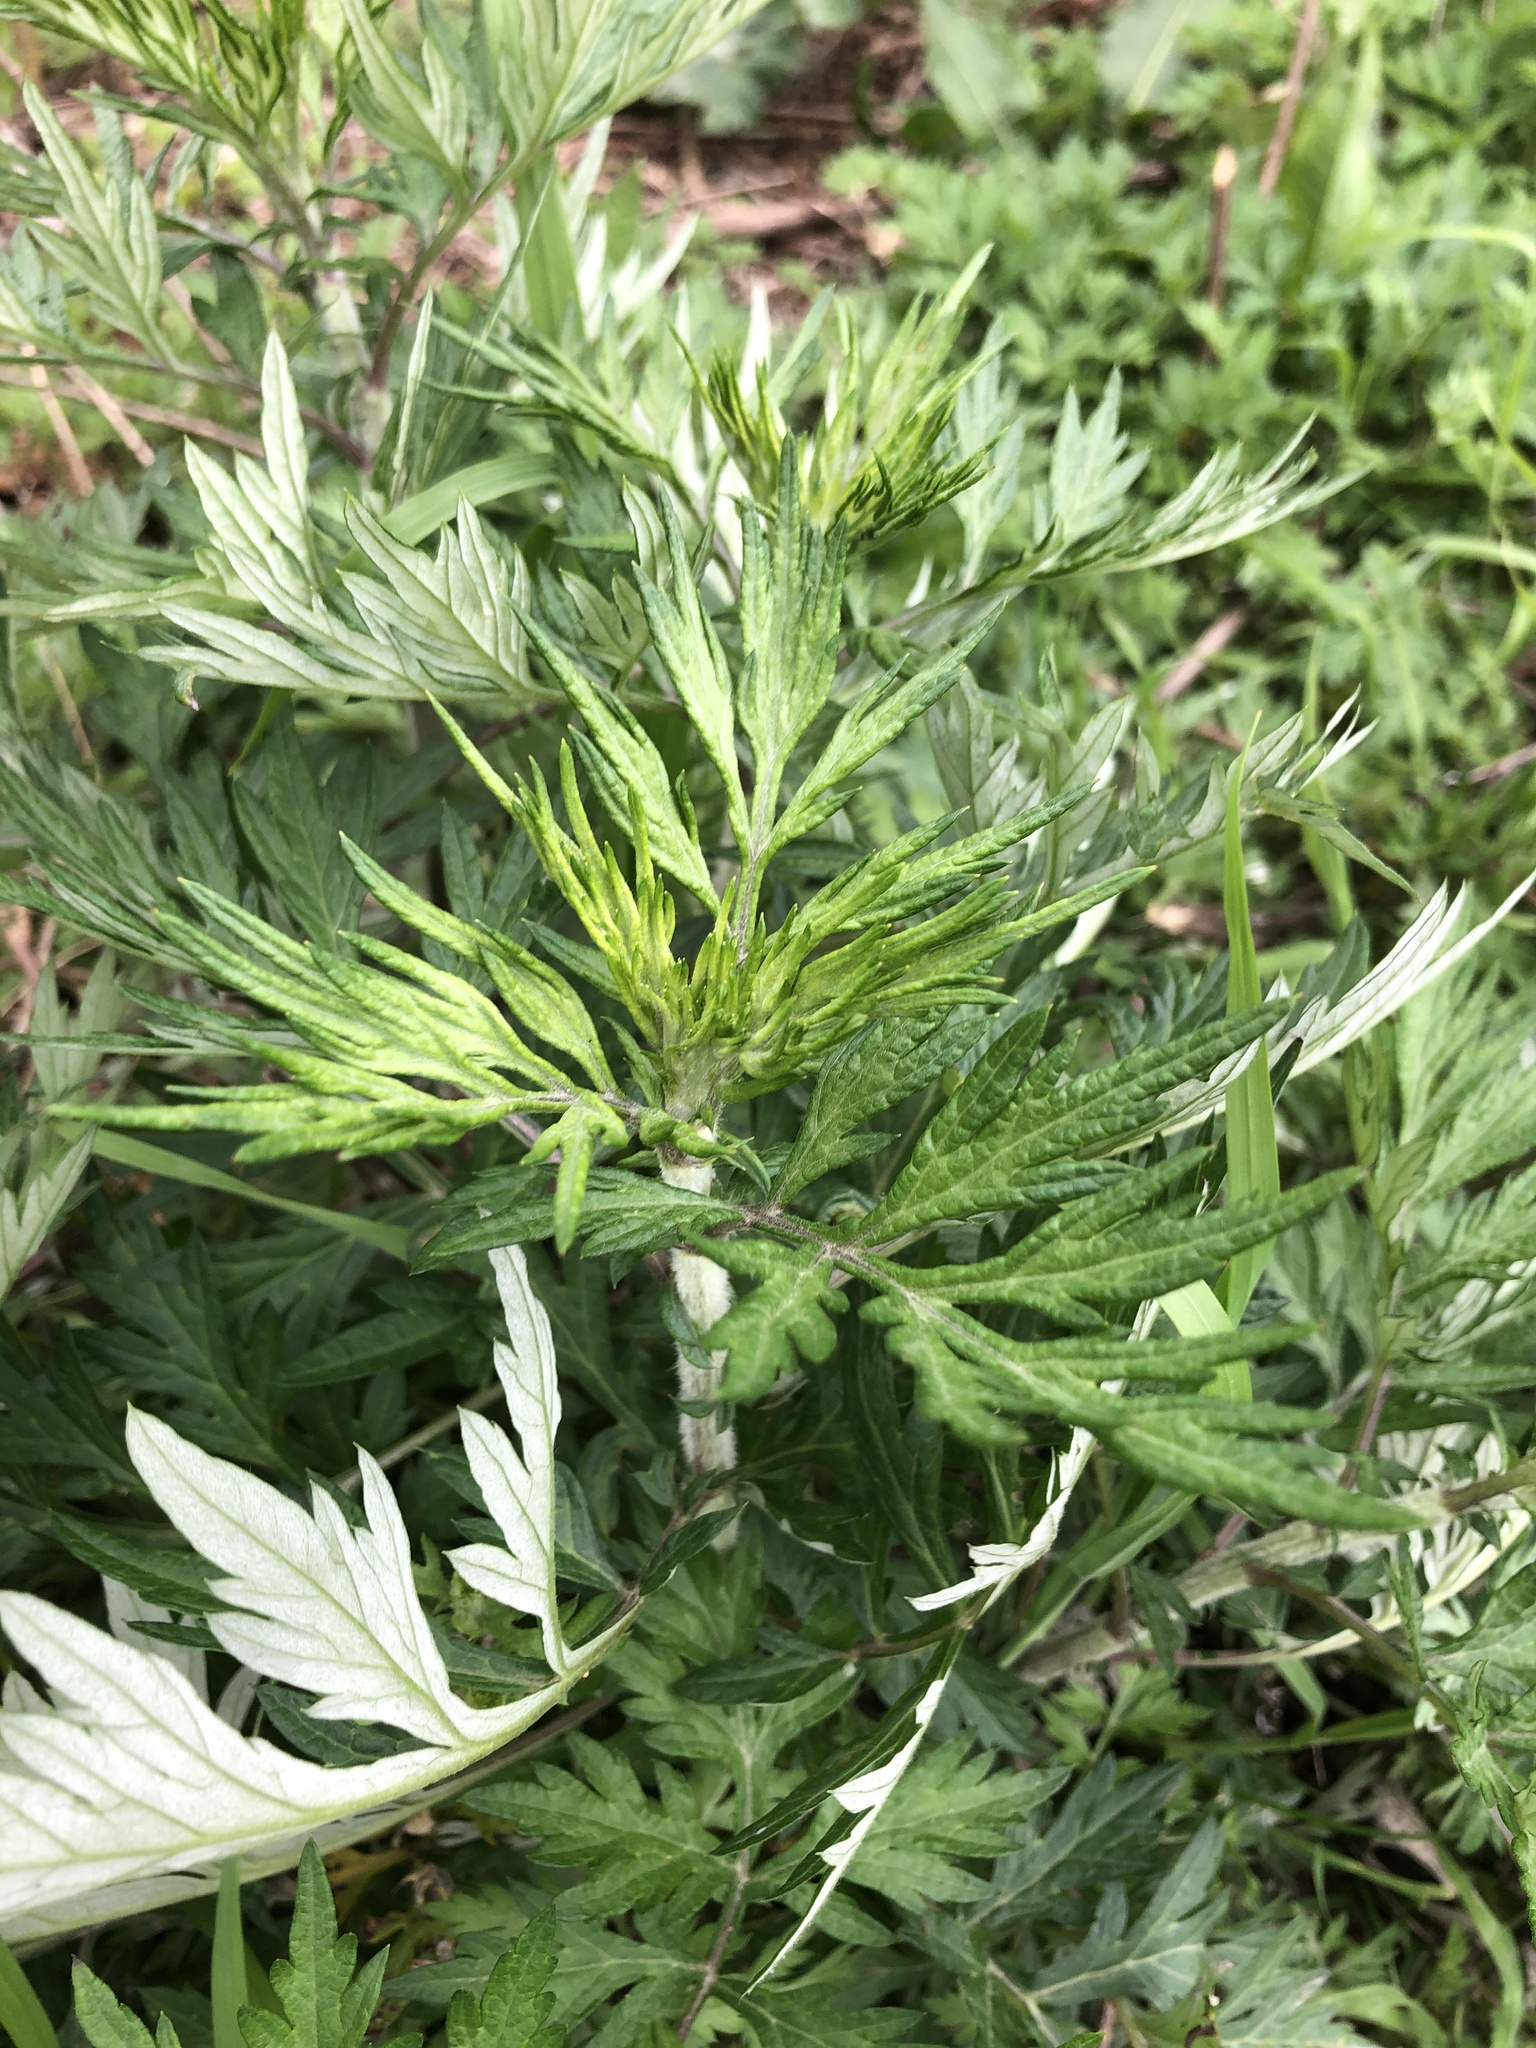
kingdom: Plantae
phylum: Tracheophyta
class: Magnoliopsida
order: Asterales
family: Asteraceae
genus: Artemisia
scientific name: Artemisia vulgaris
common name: Mugwort
